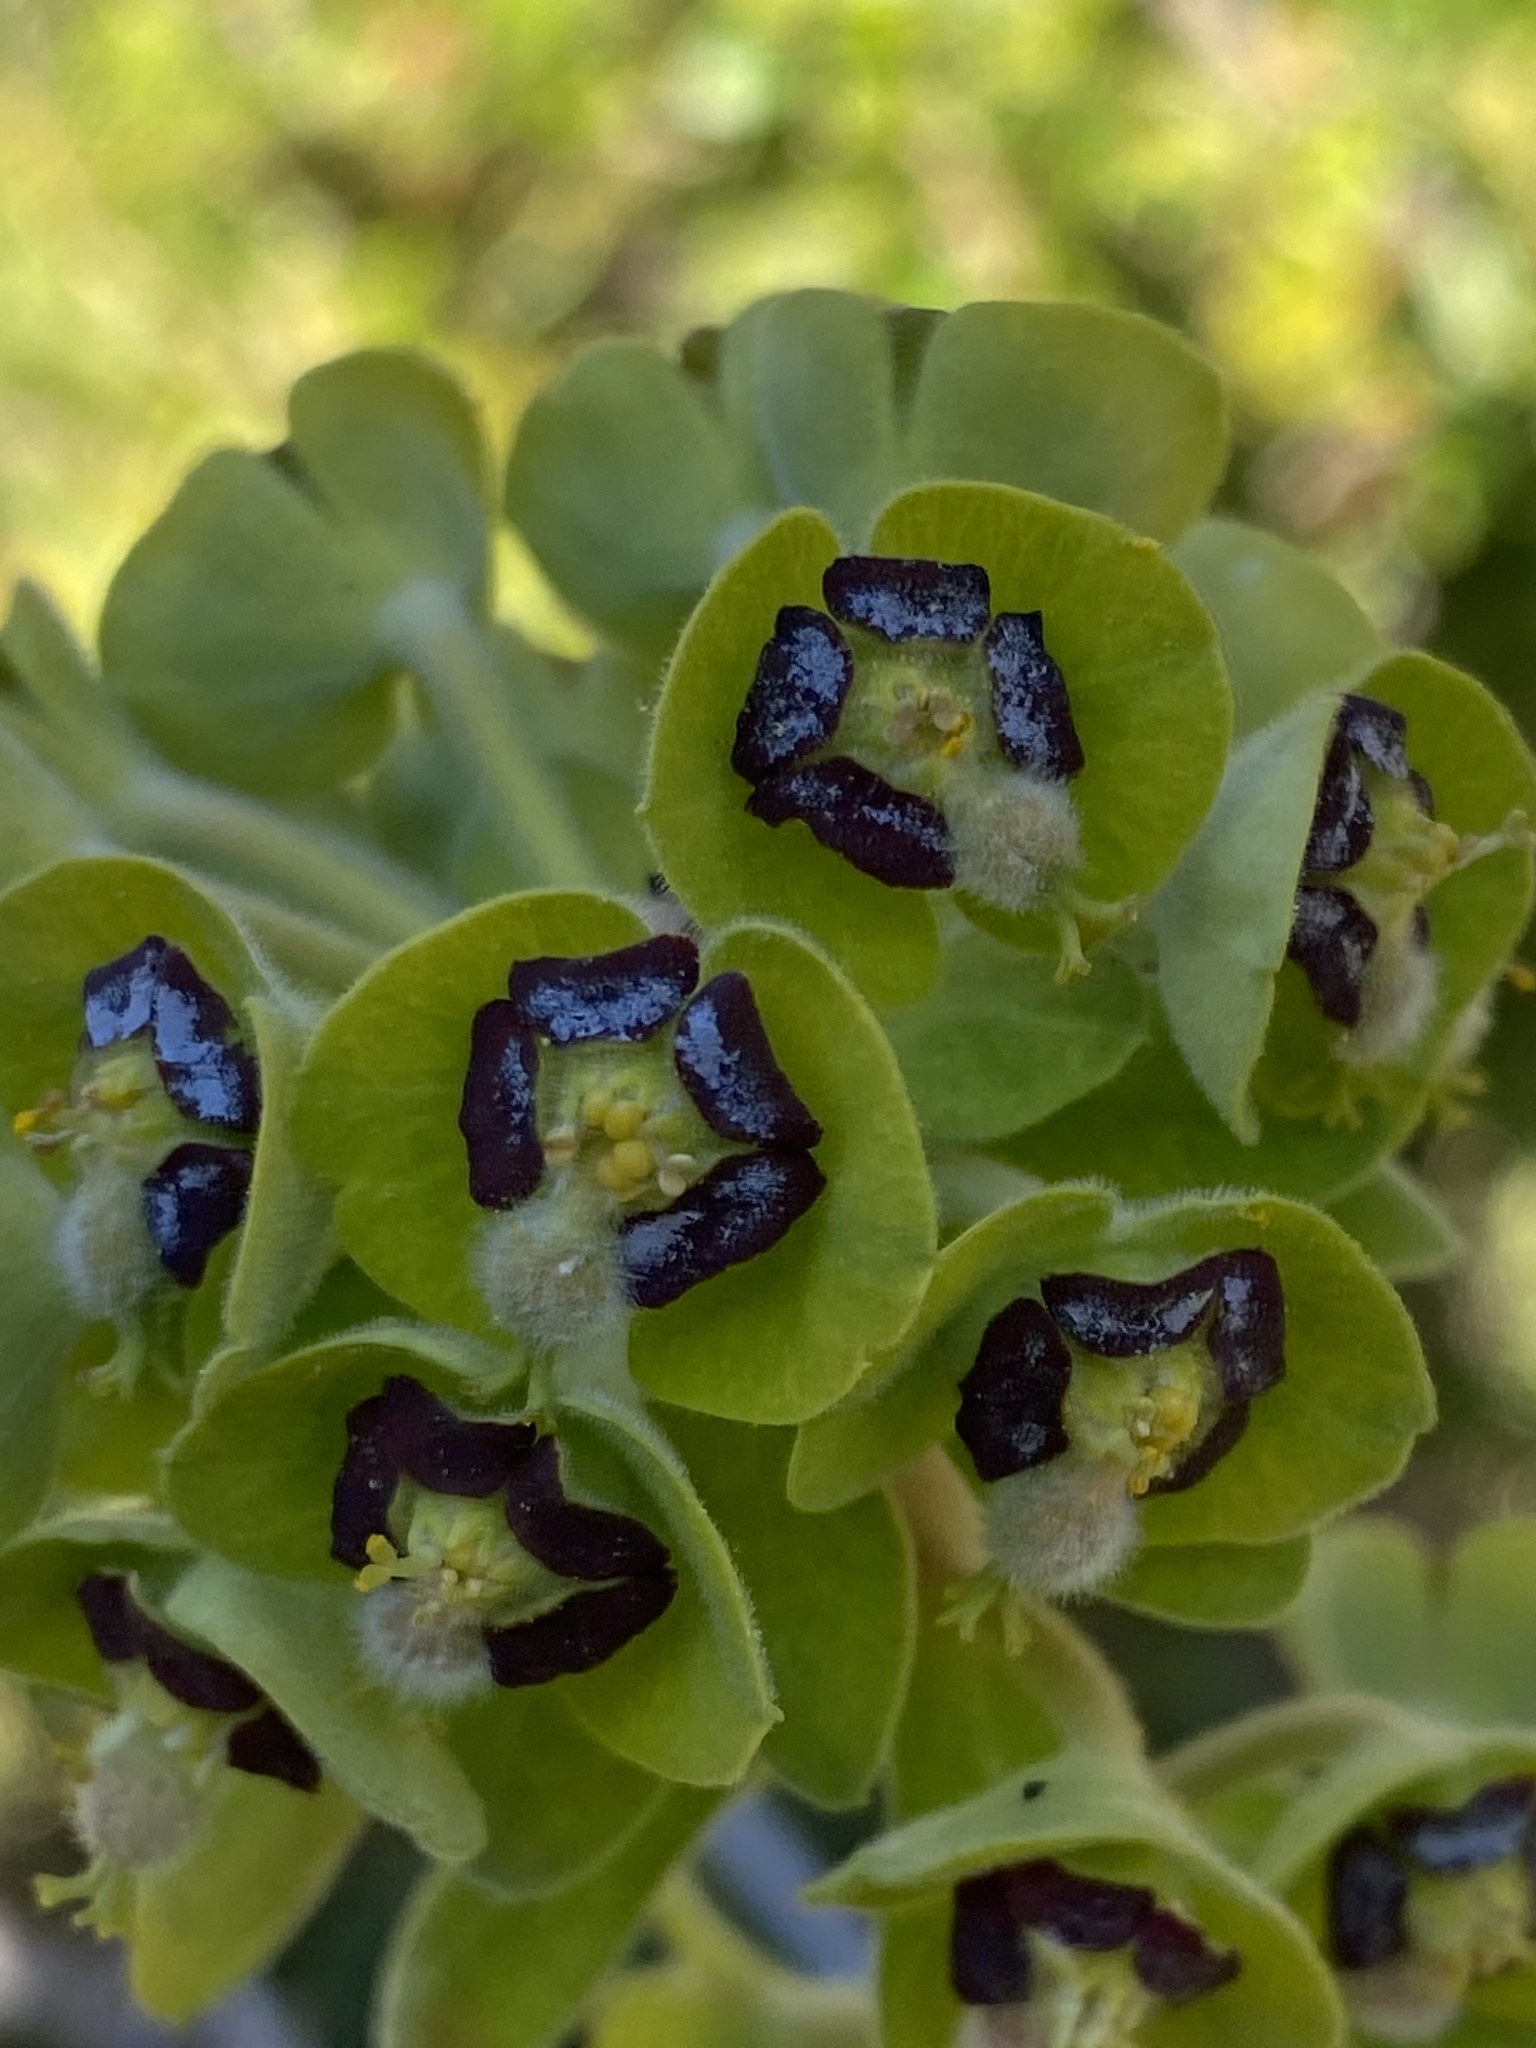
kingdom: Plantae
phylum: Tracheophyta
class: Magnoliopsida
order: Malpighiales
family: Euphorbiaceae
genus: Euphorbia
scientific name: Euphorbia characias
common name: Mediterranean spurge
